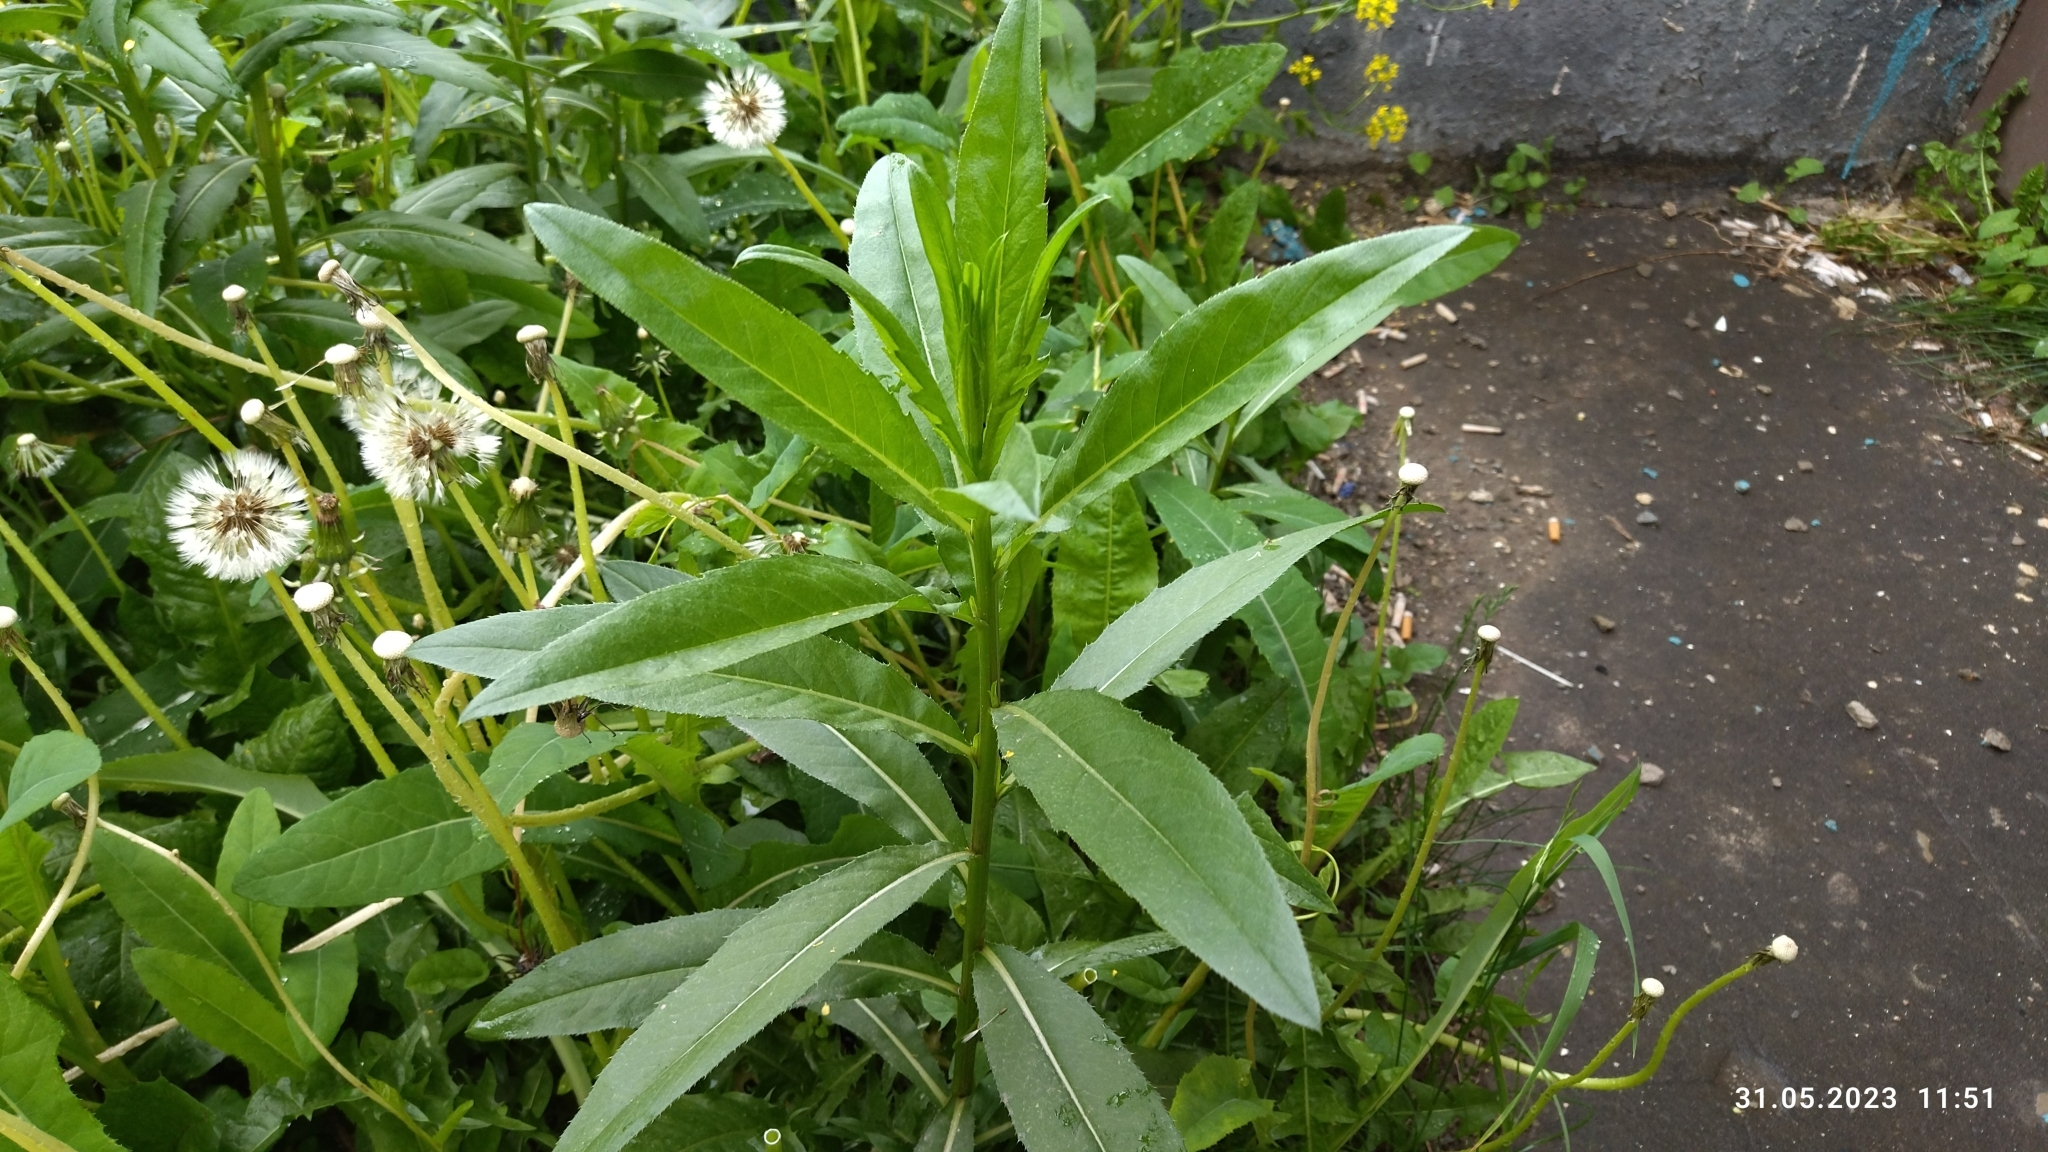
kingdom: Plantae
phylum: Tracheophyta
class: Magnoliopsida
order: Asterales
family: Asteraceae
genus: Cirsium
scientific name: Cirsium arvense
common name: Creeping thistle
